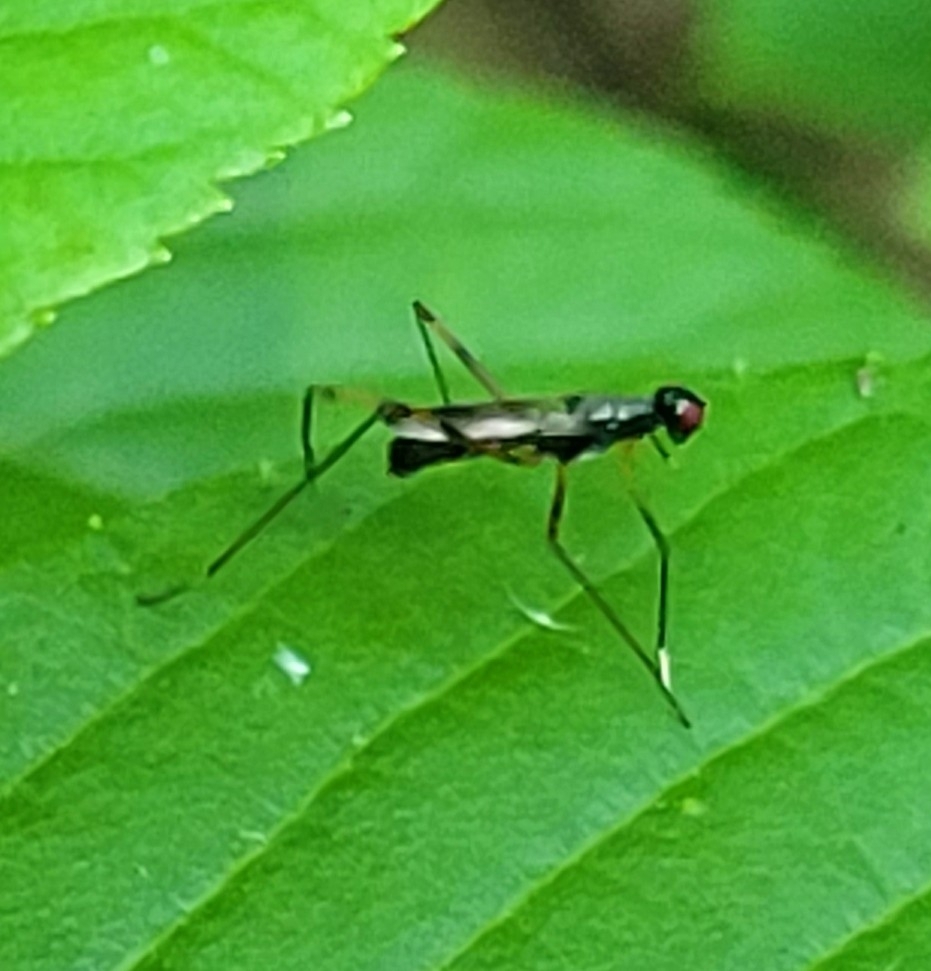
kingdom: Animalia
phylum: Arthropoda
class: Insecta
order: Diptera
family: Micropezidae
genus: Rainieria
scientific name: Rainieria antennaepes
